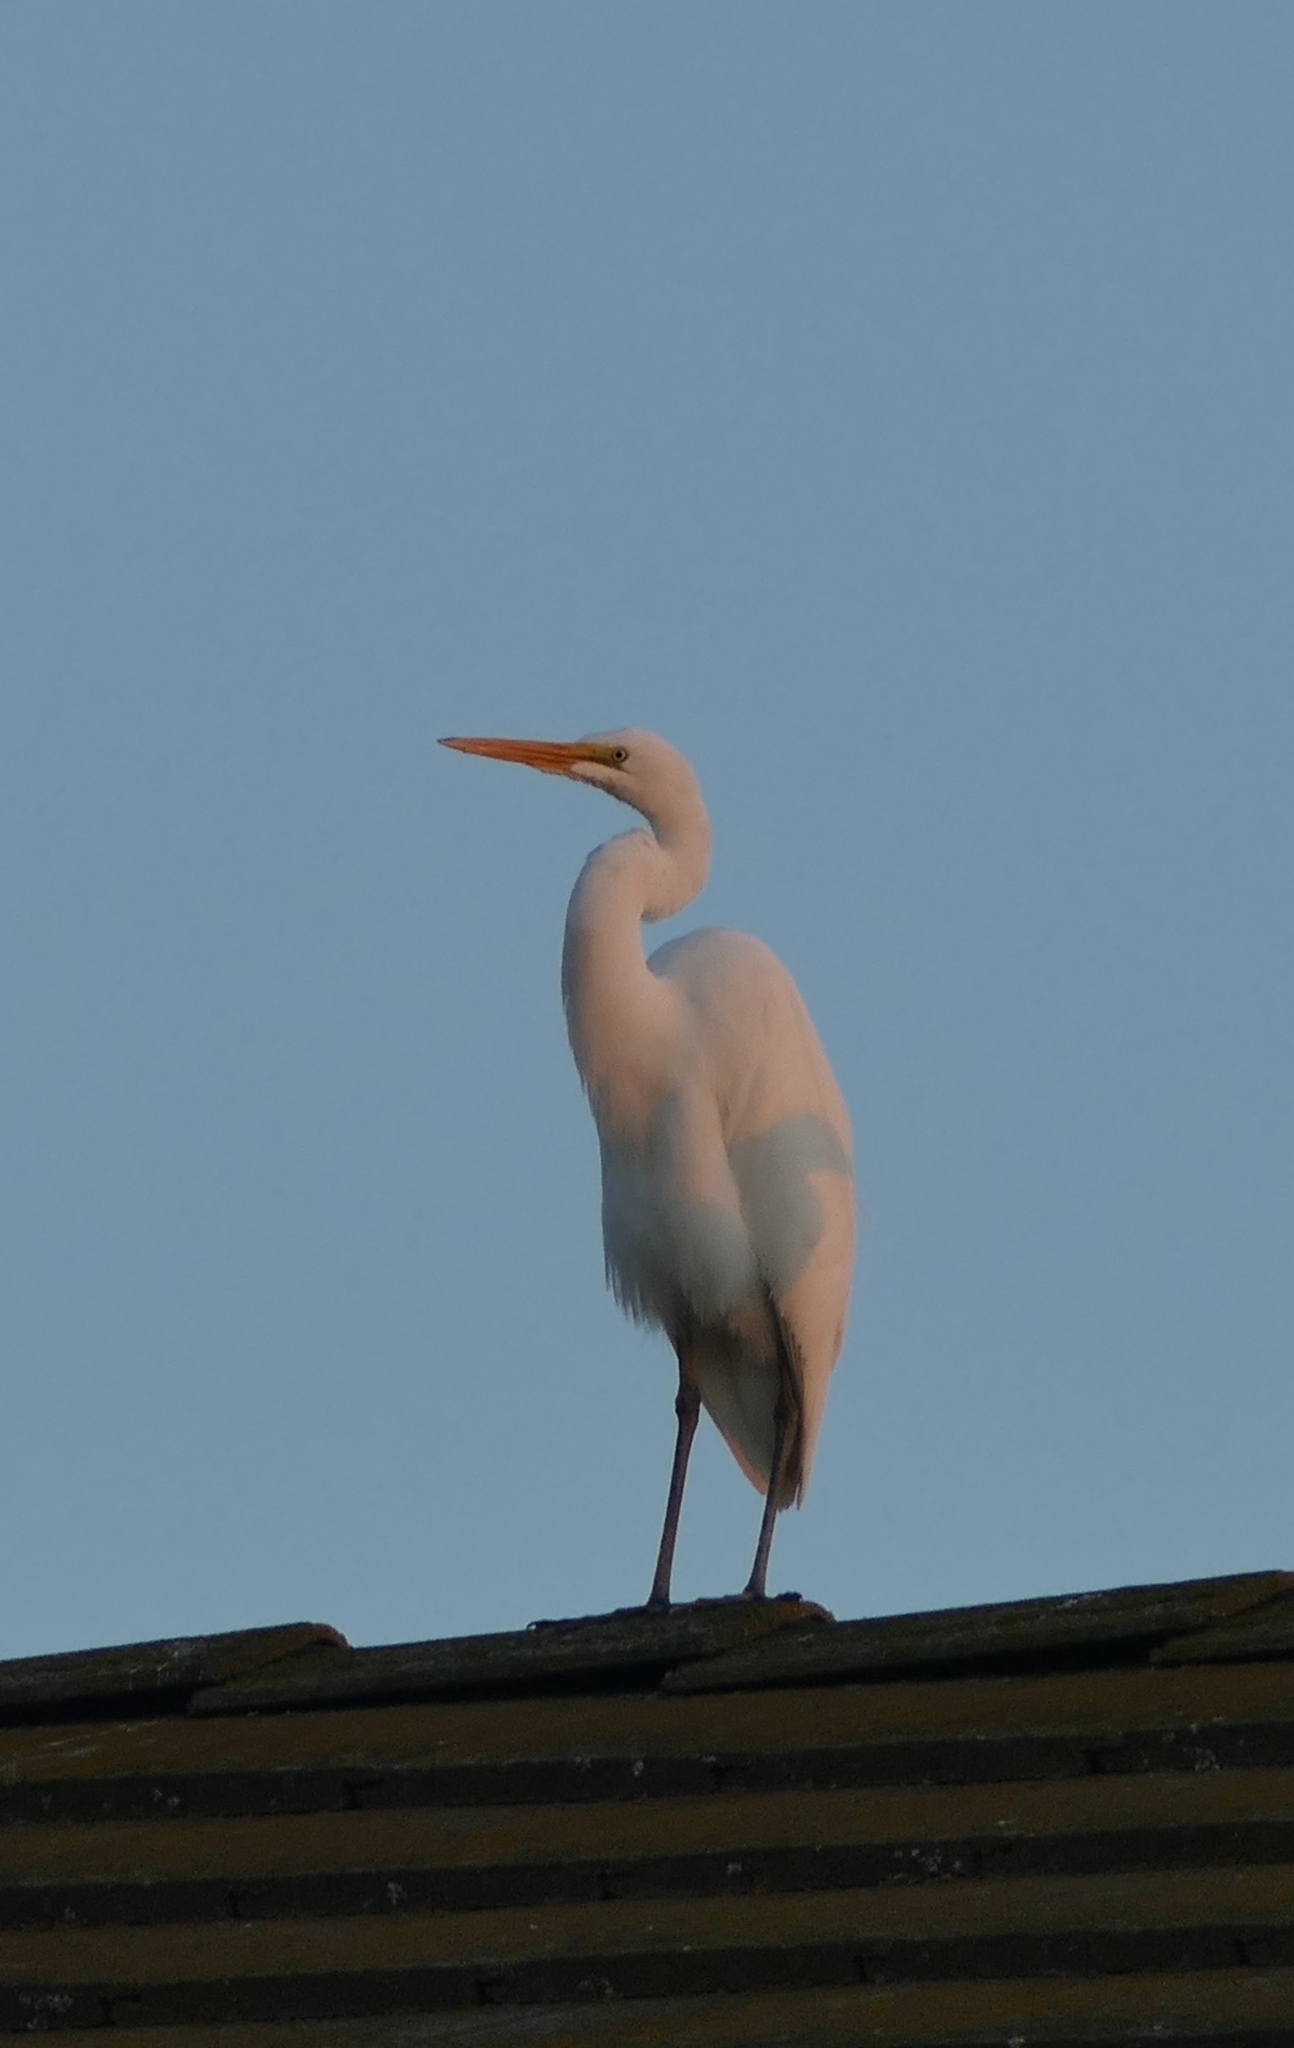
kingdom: Animalia
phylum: Chordata
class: Aves
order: Pelecaniformes
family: Ardeidae
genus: Ardea
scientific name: Ardea alba
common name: Great egret
